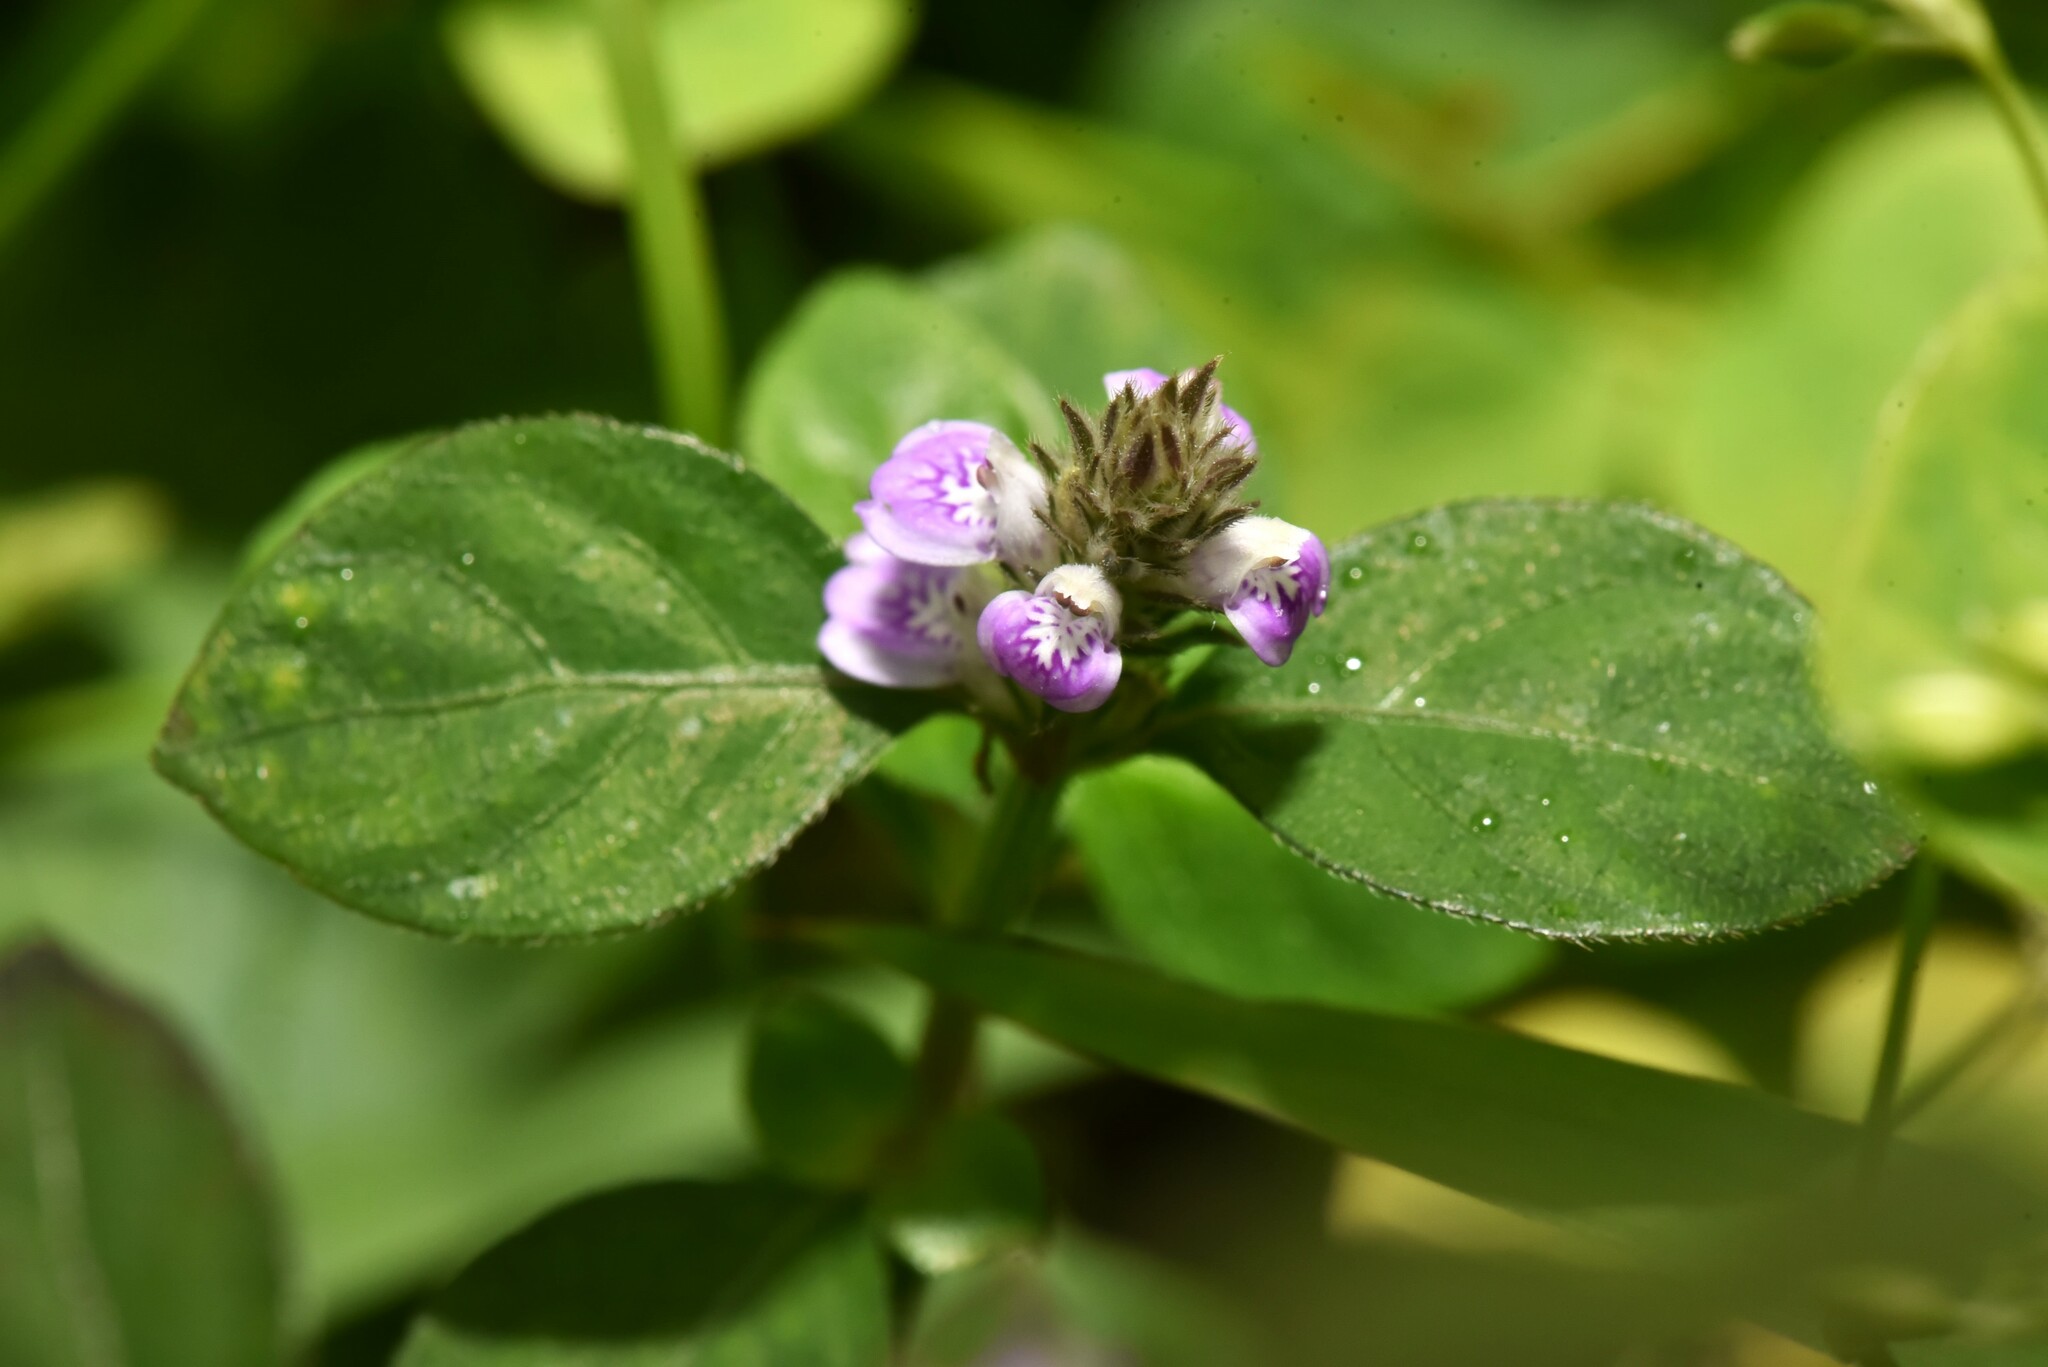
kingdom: Plantae
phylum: Tracheophyta
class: Magnoliopsida
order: Lamiales
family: Acanthaceae
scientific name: Acanthaceae
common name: Acanthaceae
